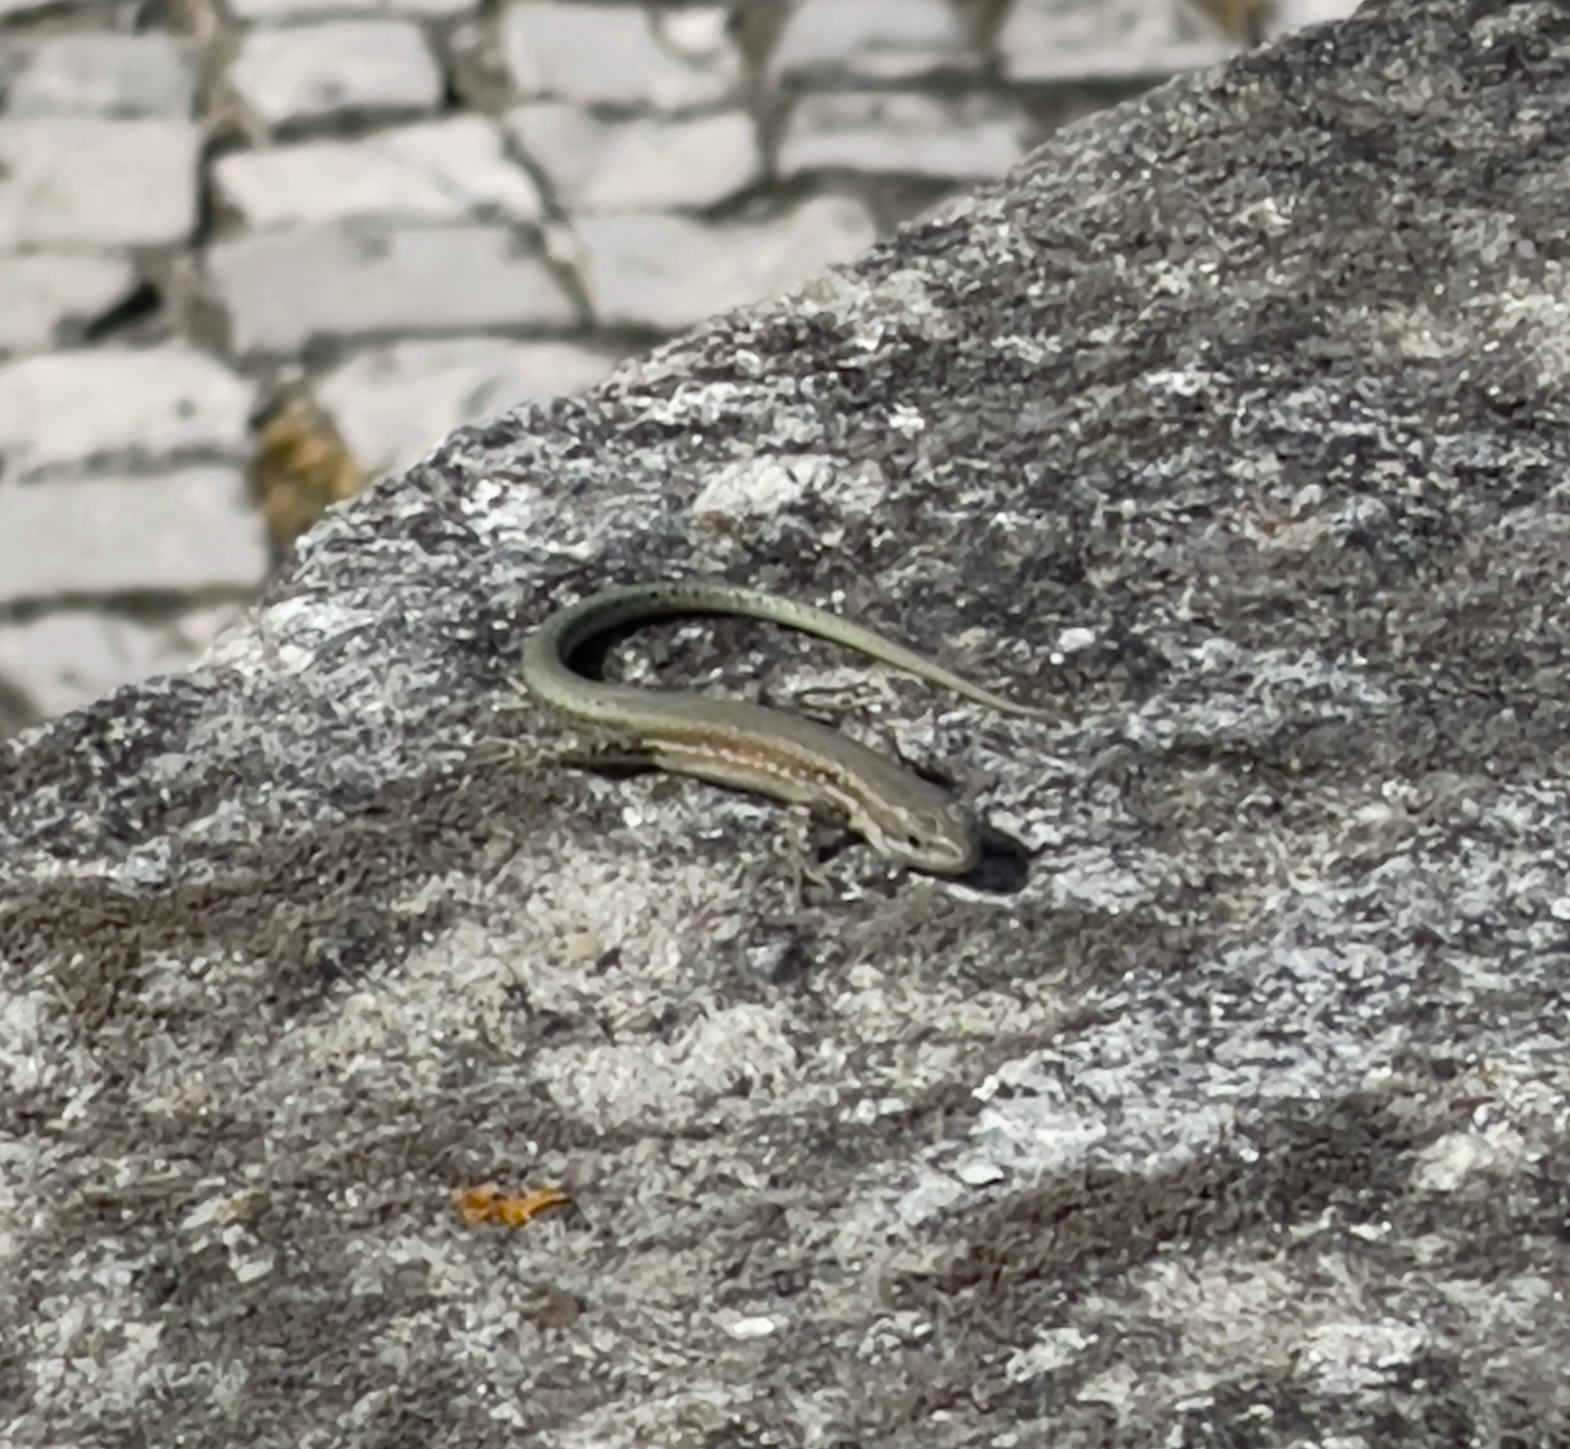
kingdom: Animalia
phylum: Chordata
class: Squamata
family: Lacertidae
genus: Podarcis
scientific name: Podarcis virescens
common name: Geniez’s wall lizard
